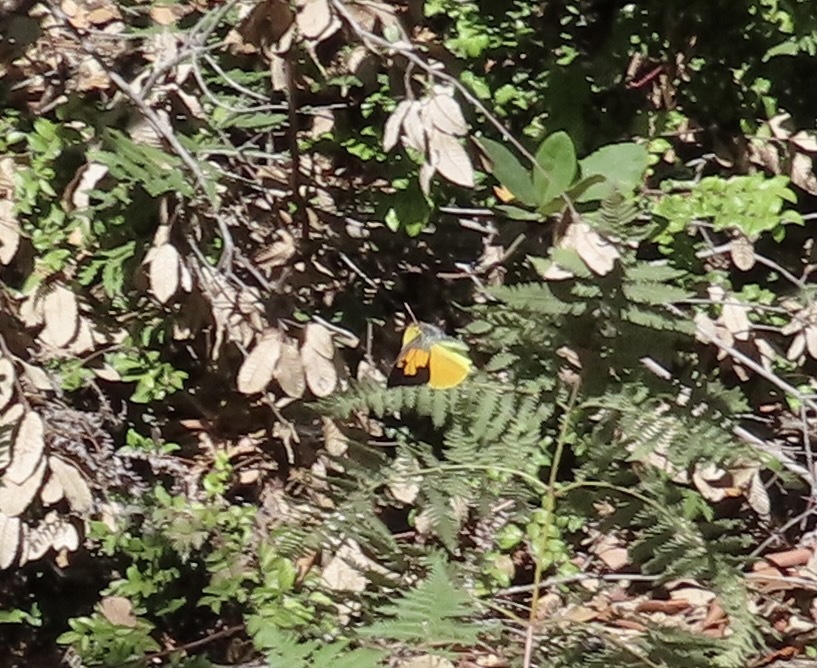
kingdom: Animalia
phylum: Arthropoda
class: Insecta
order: Lepidoptera
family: Pieridae
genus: Zerene
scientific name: Zerene eurydice
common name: California dogface
